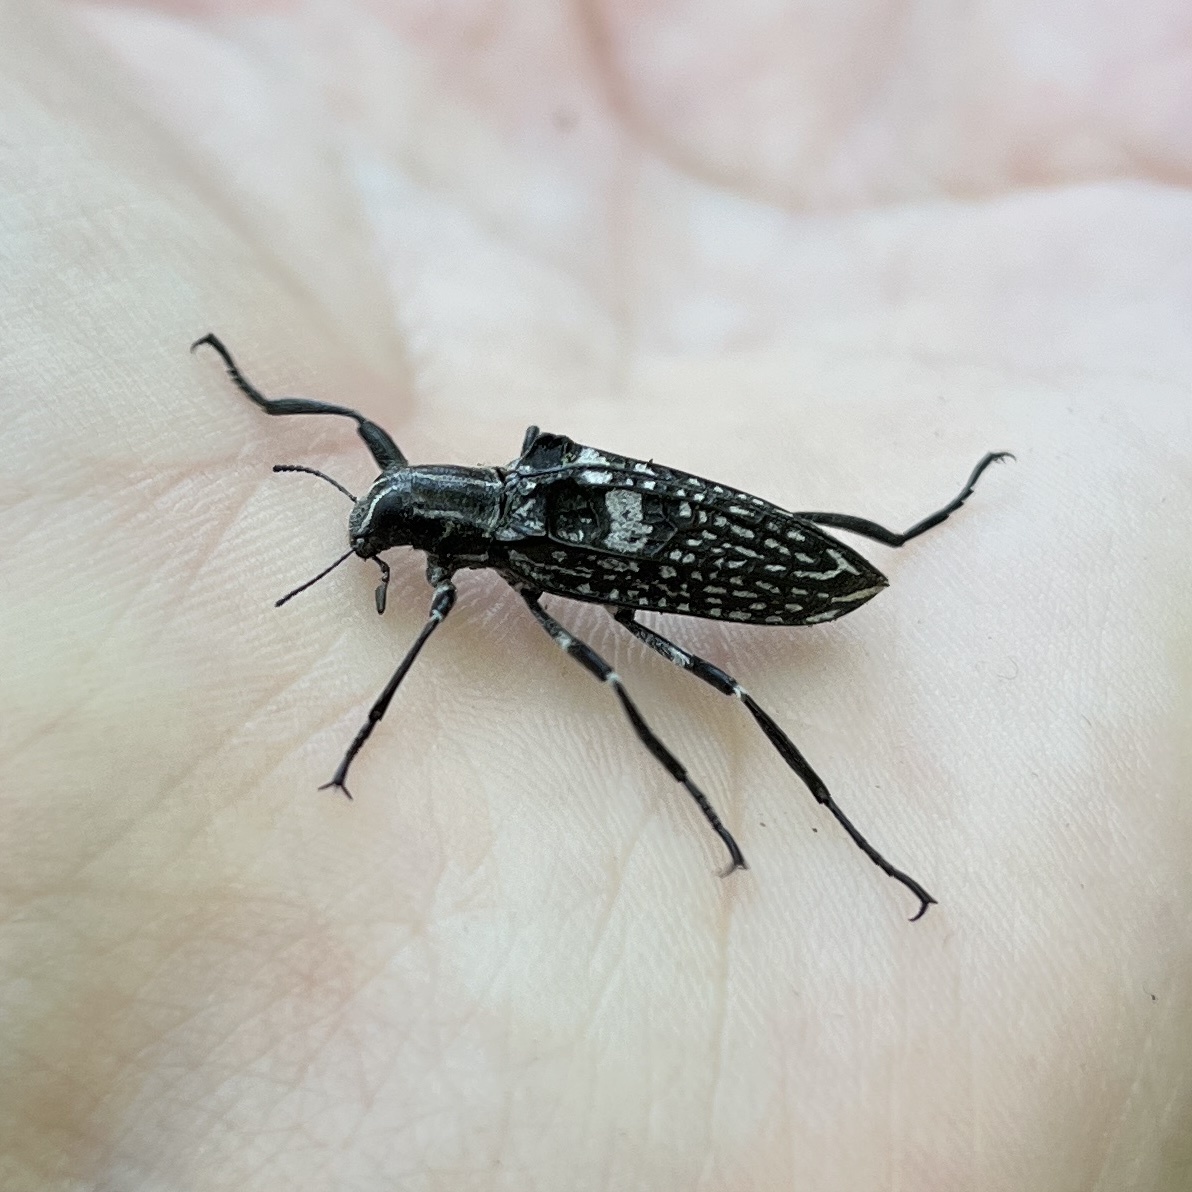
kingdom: Animalia
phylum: Arthropoda
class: Insecta
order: Coleoptera
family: Tenebrionidae
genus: Homocyrtus
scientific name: Homocyrtus
